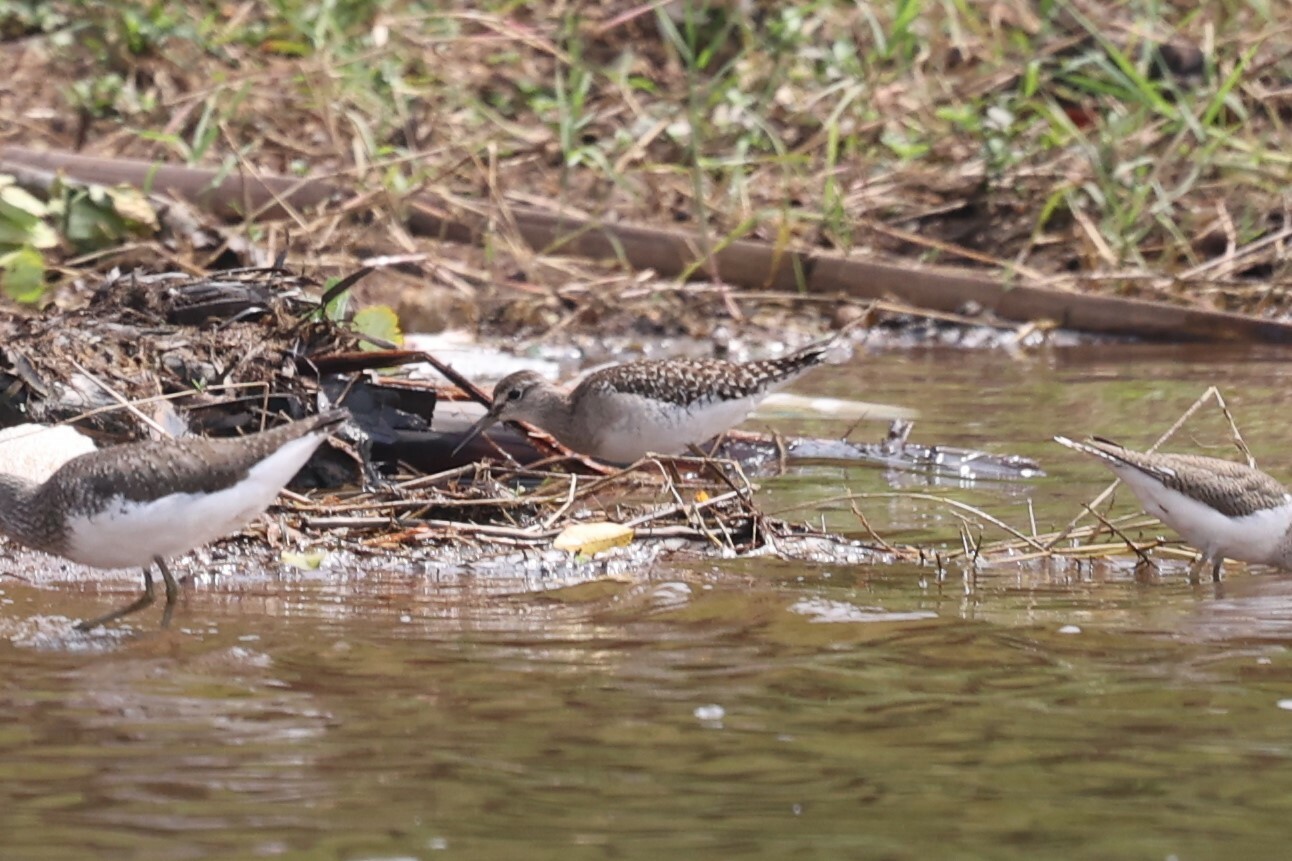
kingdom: Animalia
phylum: Chordata
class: Aves
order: Charadriiformes
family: Scolopacidae
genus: Tringa
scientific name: Tringa glareola
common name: Wood sandpiper
